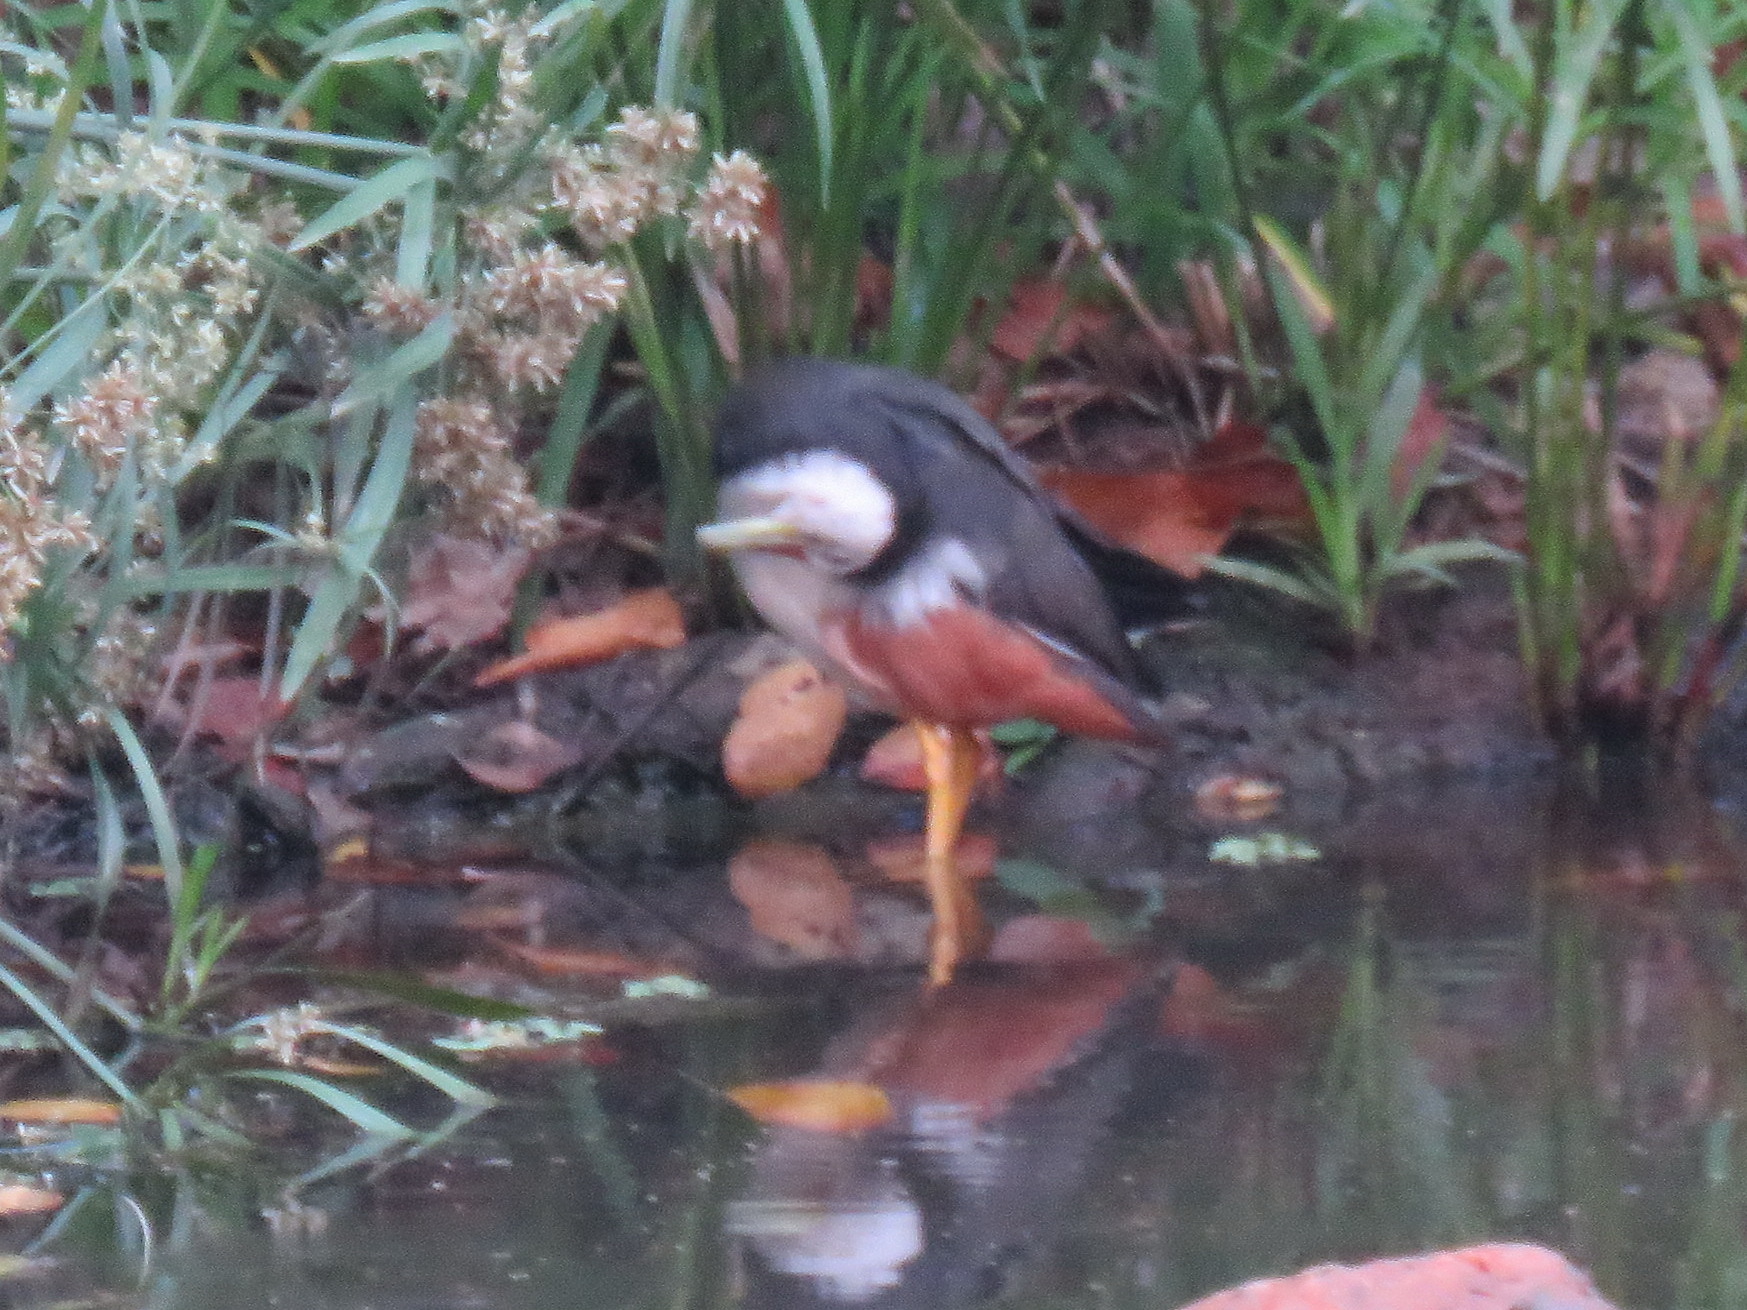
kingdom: Animalia
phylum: Chordata
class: Aves
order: Gruiformes
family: Rallidae
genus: Amaurornis
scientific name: Amaurornis phoenicurus
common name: White-breasted waterhen
